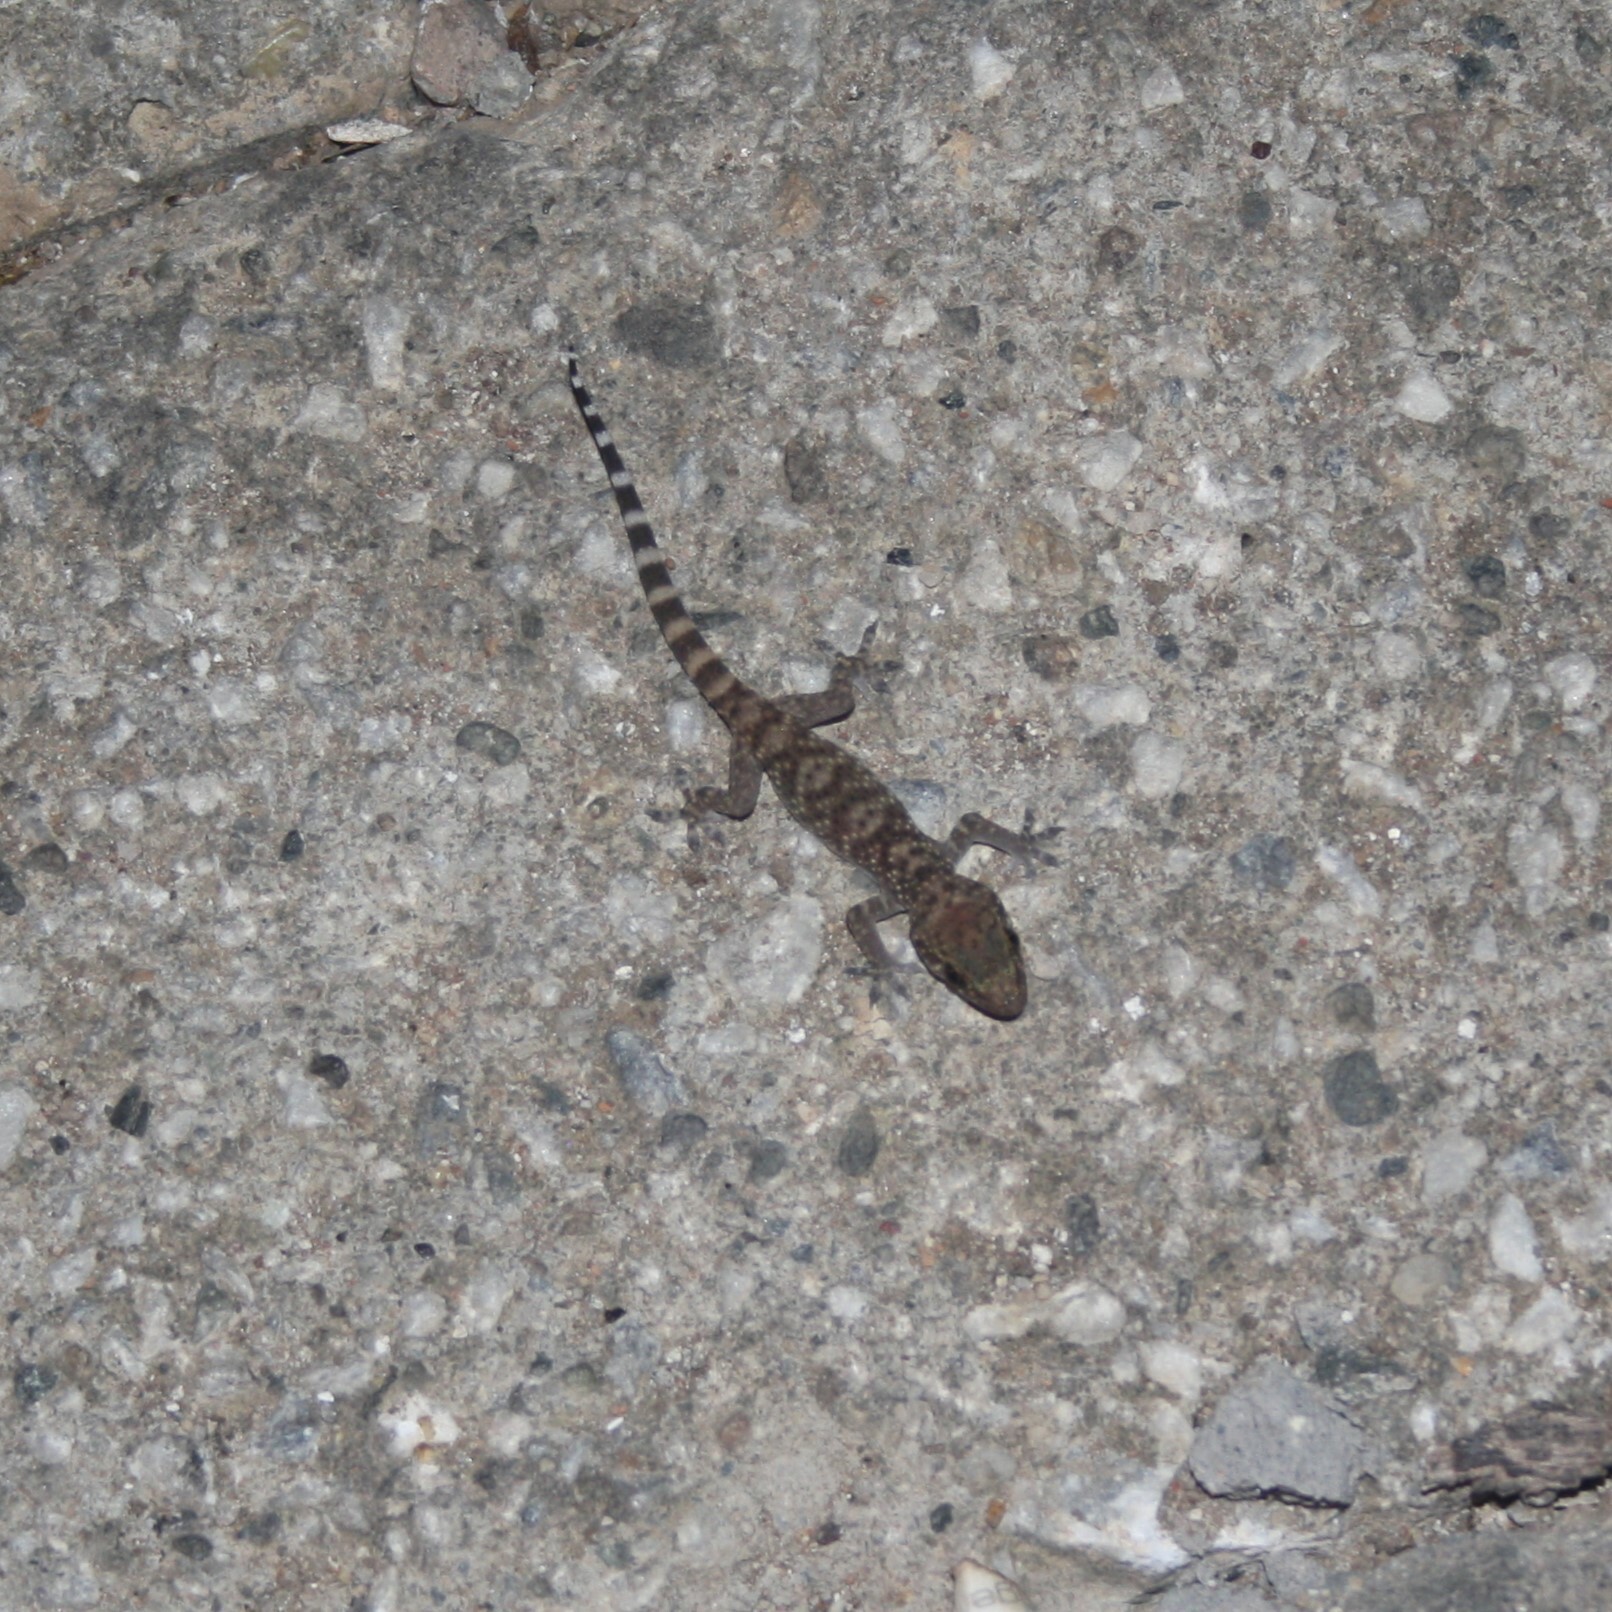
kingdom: Animalia
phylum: Chordata
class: Squamata
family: Gekkonidae
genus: Hemidactylus
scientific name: Hemidactylus turcicus
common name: Turkish gecko
